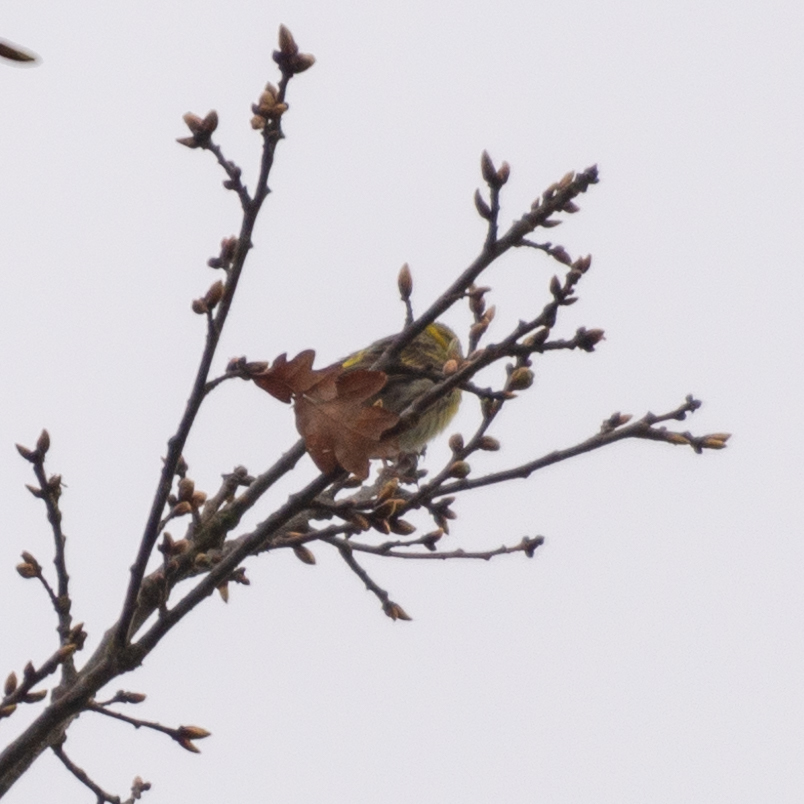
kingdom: Animalia
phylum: Chordata
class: Aves
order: Passeriformes
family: Fringillidae
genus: Serinus
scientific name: Serinus serinus
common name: European serin
